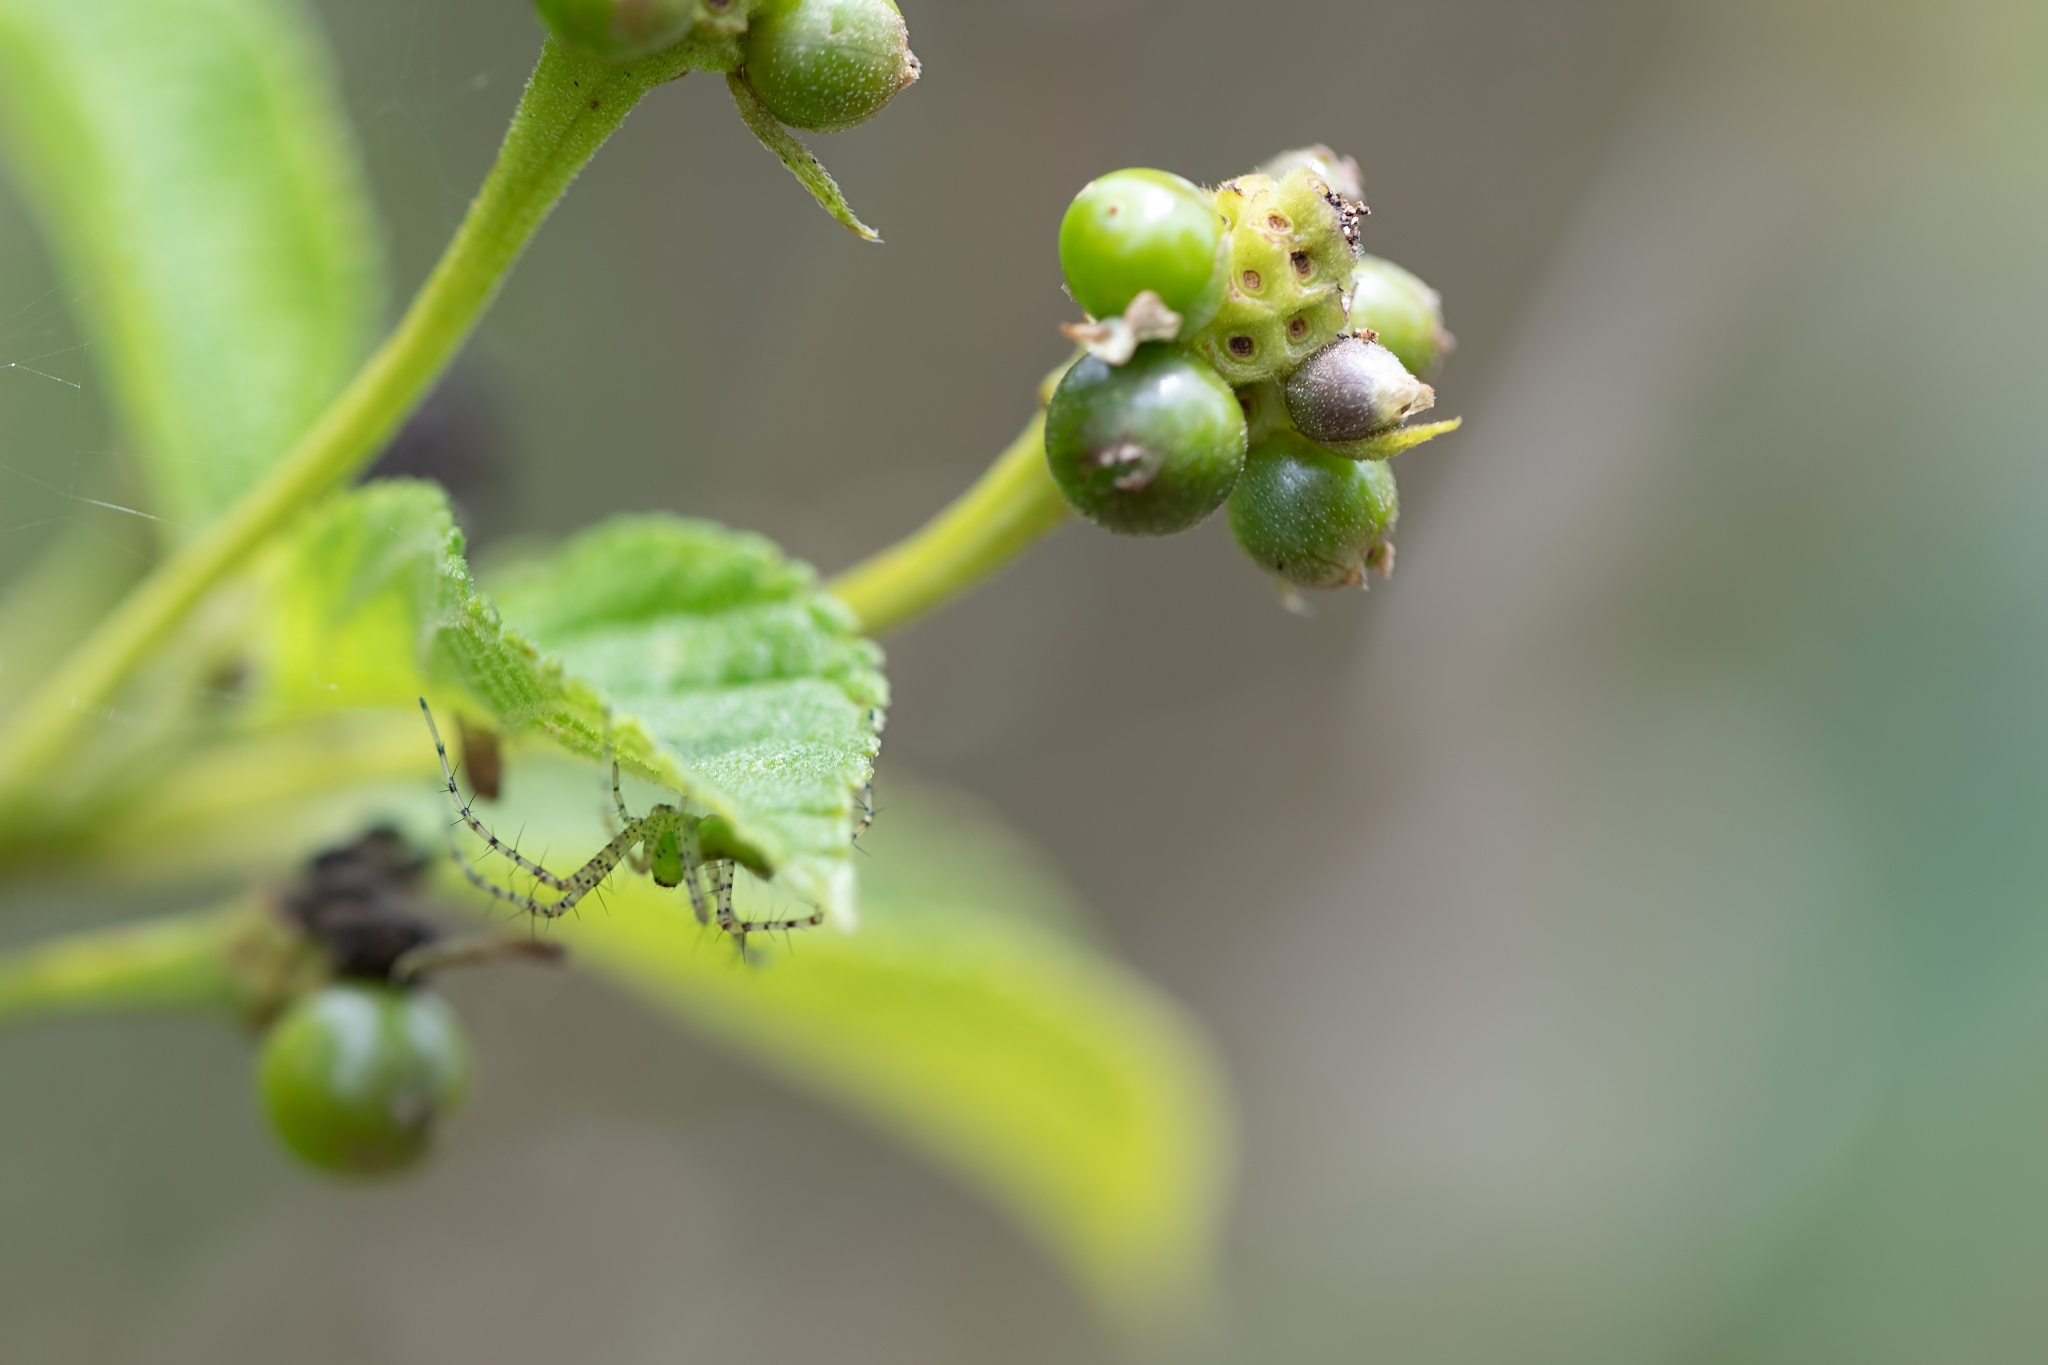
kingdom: Animalia
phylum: Arthropoda
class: Arachnida
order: Araneae
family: Oxyopidae
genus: Peucetia
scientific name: Peucetia viridans
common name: Lynx spiders
